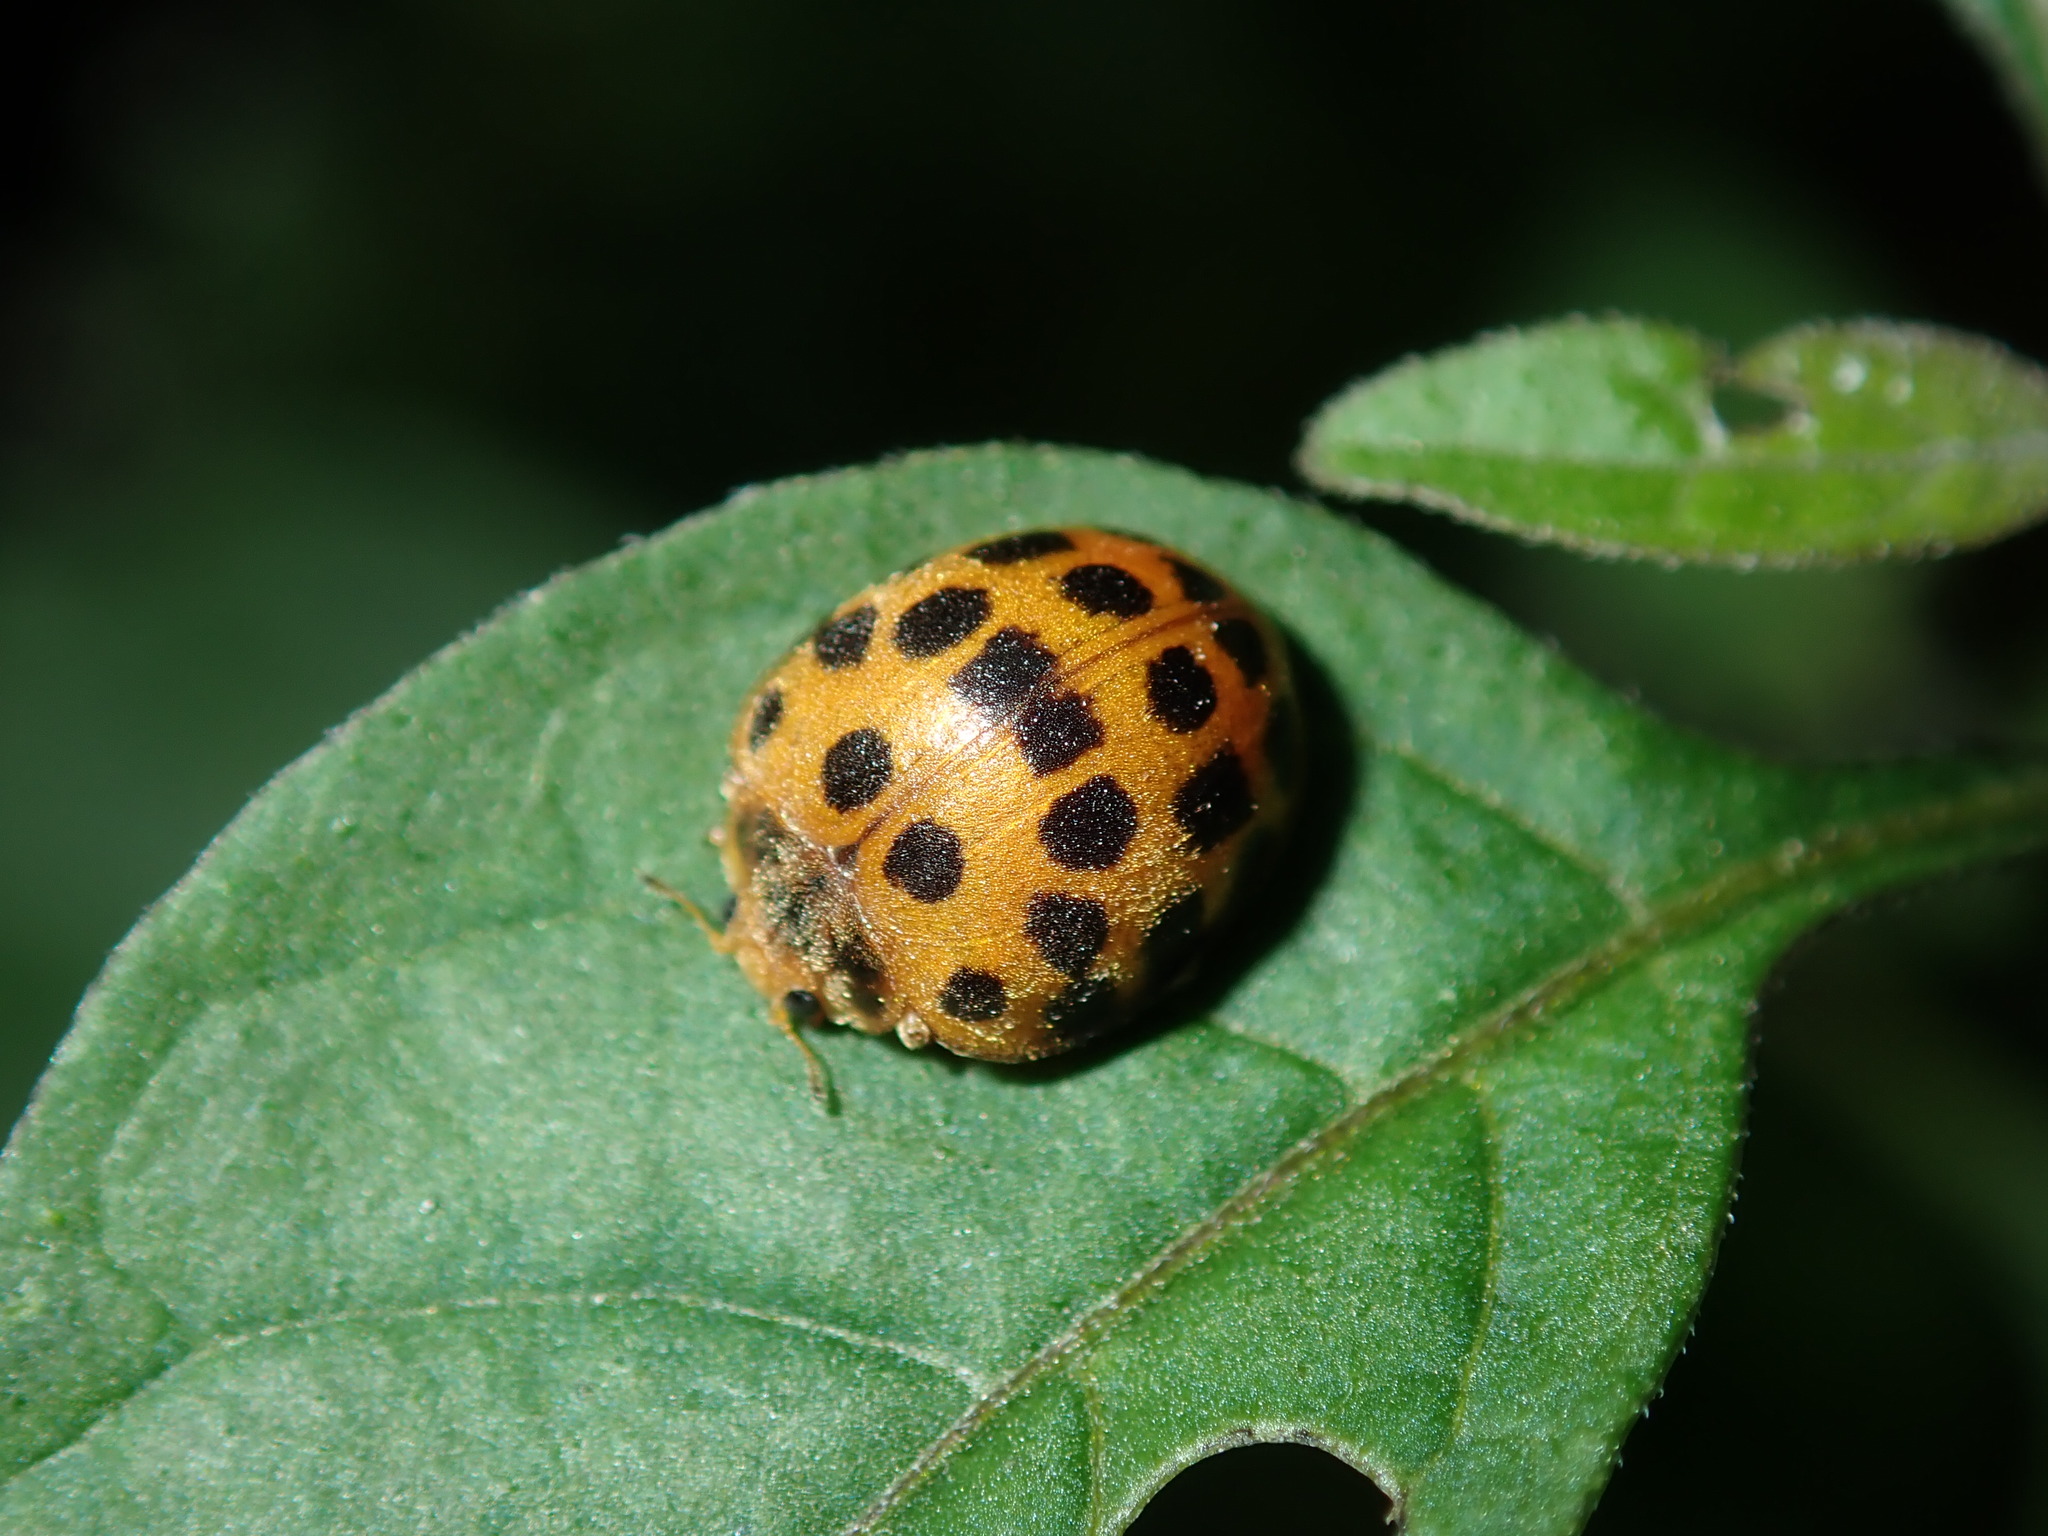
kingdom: Animalia
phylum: Arthropoda
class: Insecta
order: Coleoptera
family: Coccinellidae
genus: Henosepilachna
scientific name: Henosepilachna vigintioctopunctata
